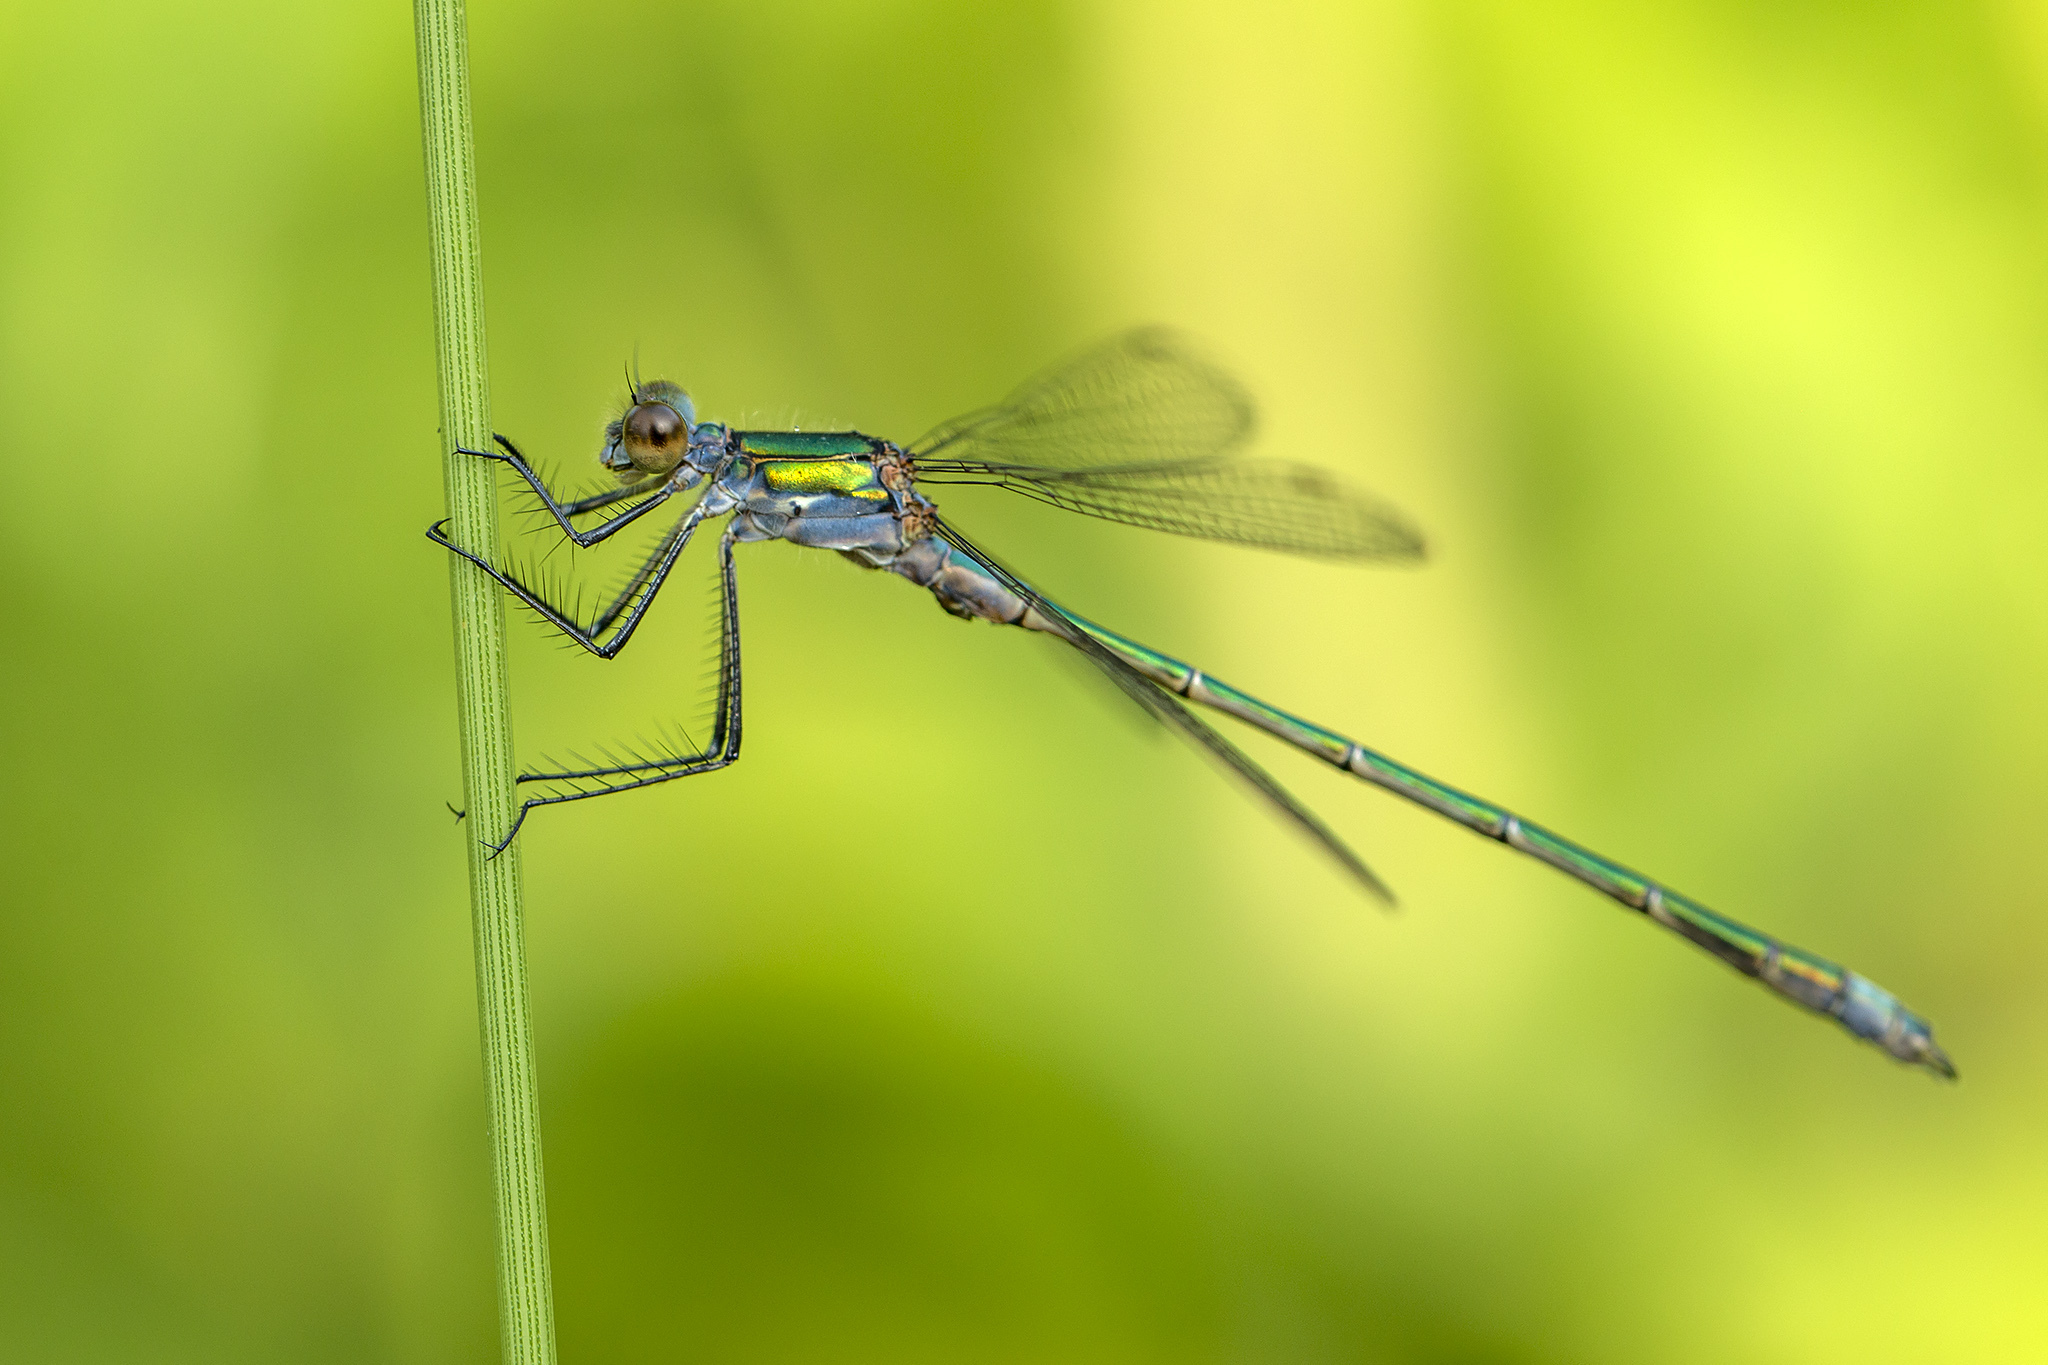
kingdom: Animalia
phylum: Arthropoda
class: Insecta
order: Odonata
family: Lestidae
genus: Lestes
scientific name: Lestes sponsa
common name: Common spreadwing
